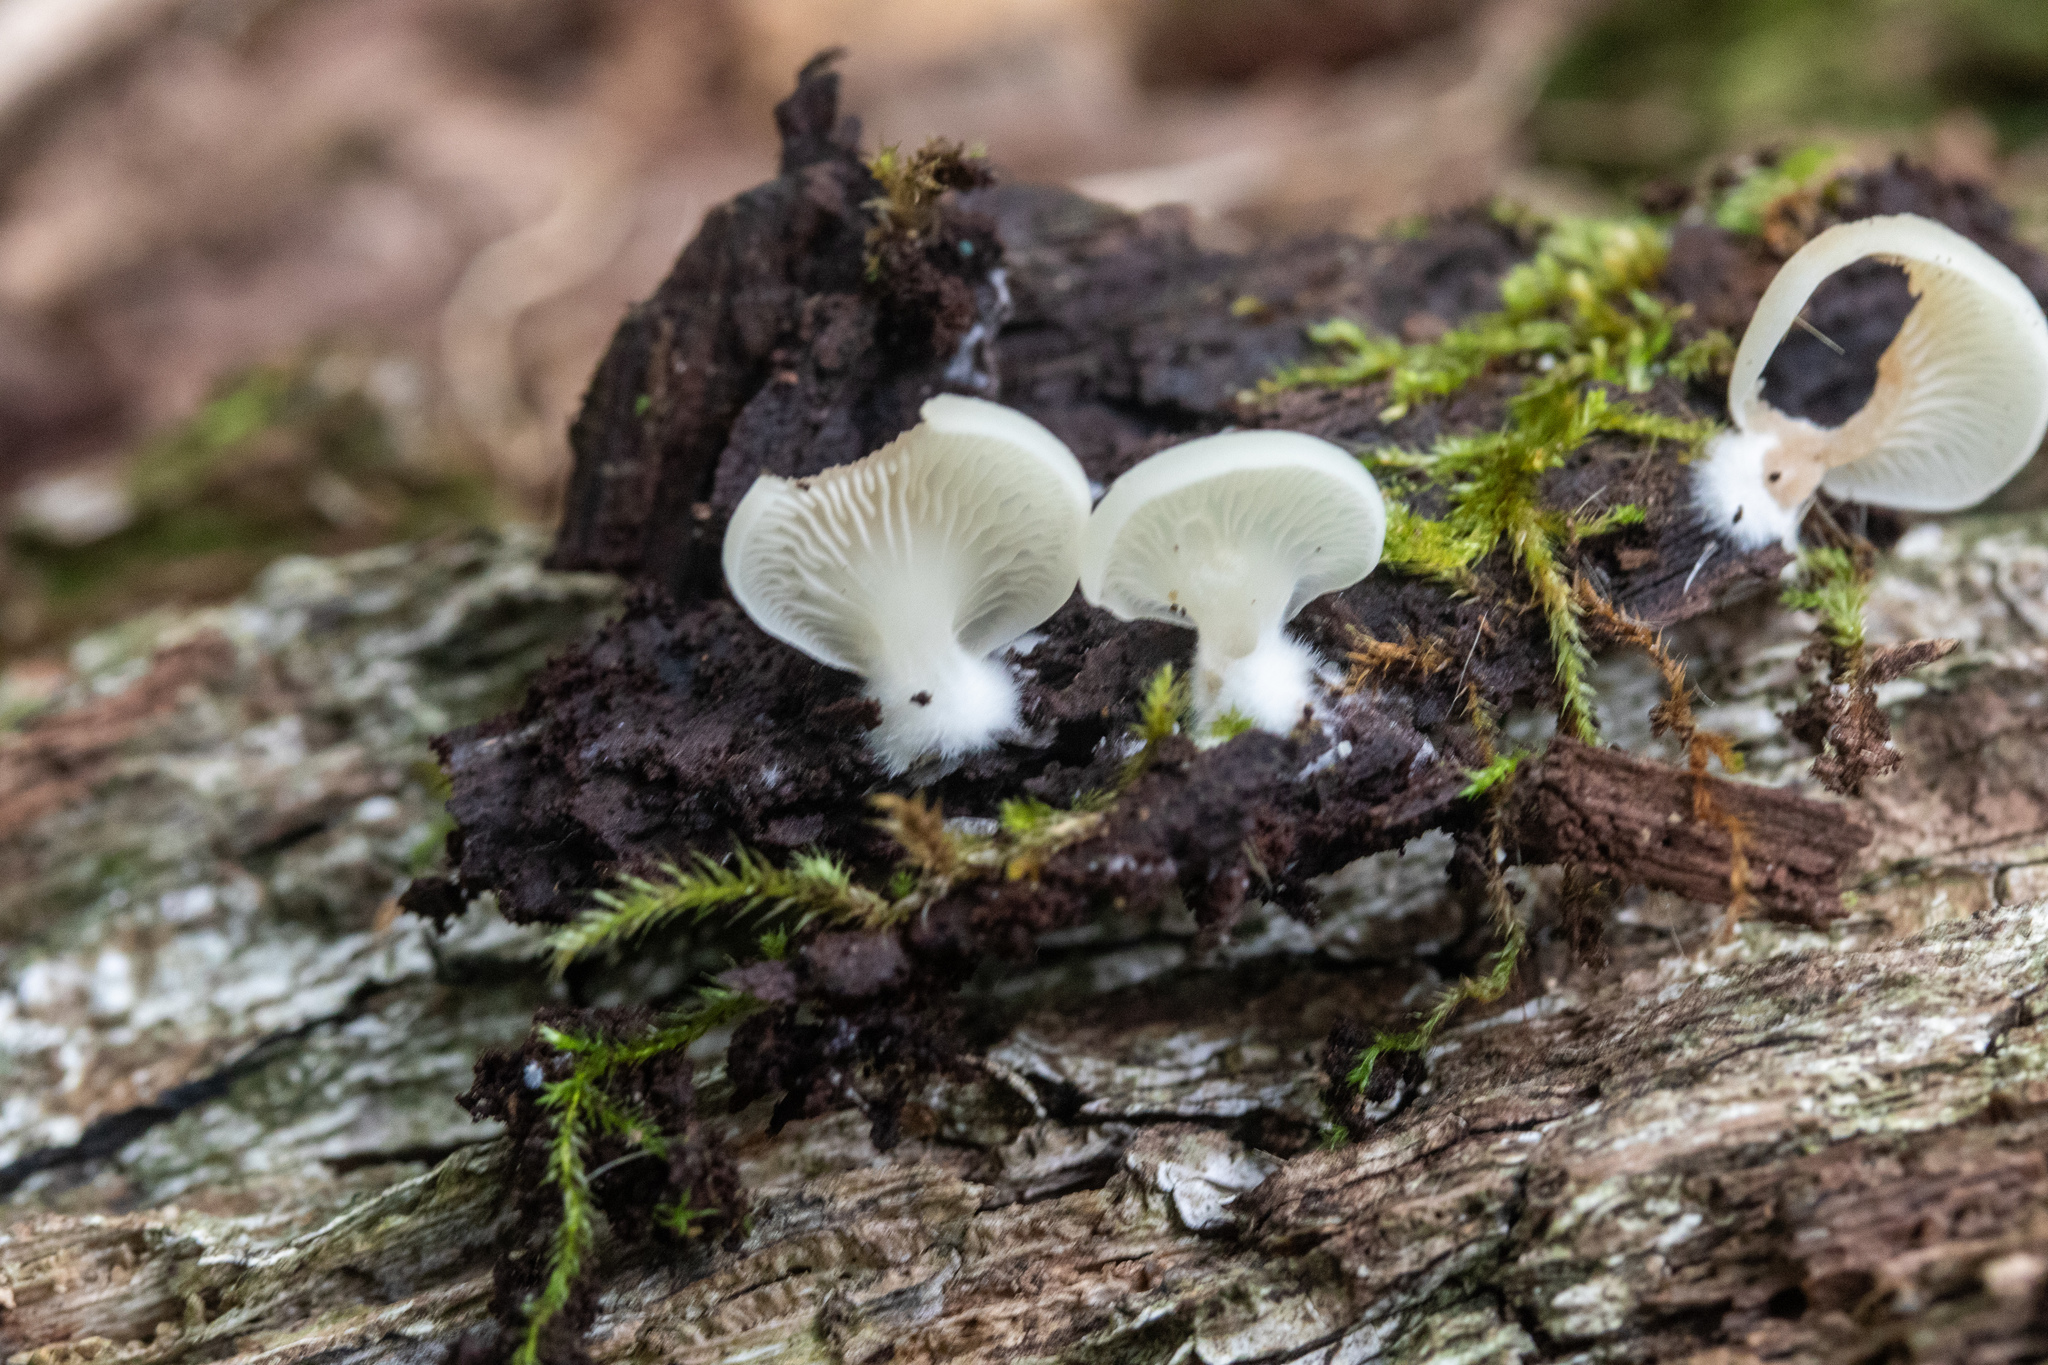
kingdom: Fungi
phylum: Basidiomycota
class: Agaricomycetes
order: Agaricales
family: Crepidotaceae
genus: Crepidotus
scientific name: Crepidotus stipitatus
